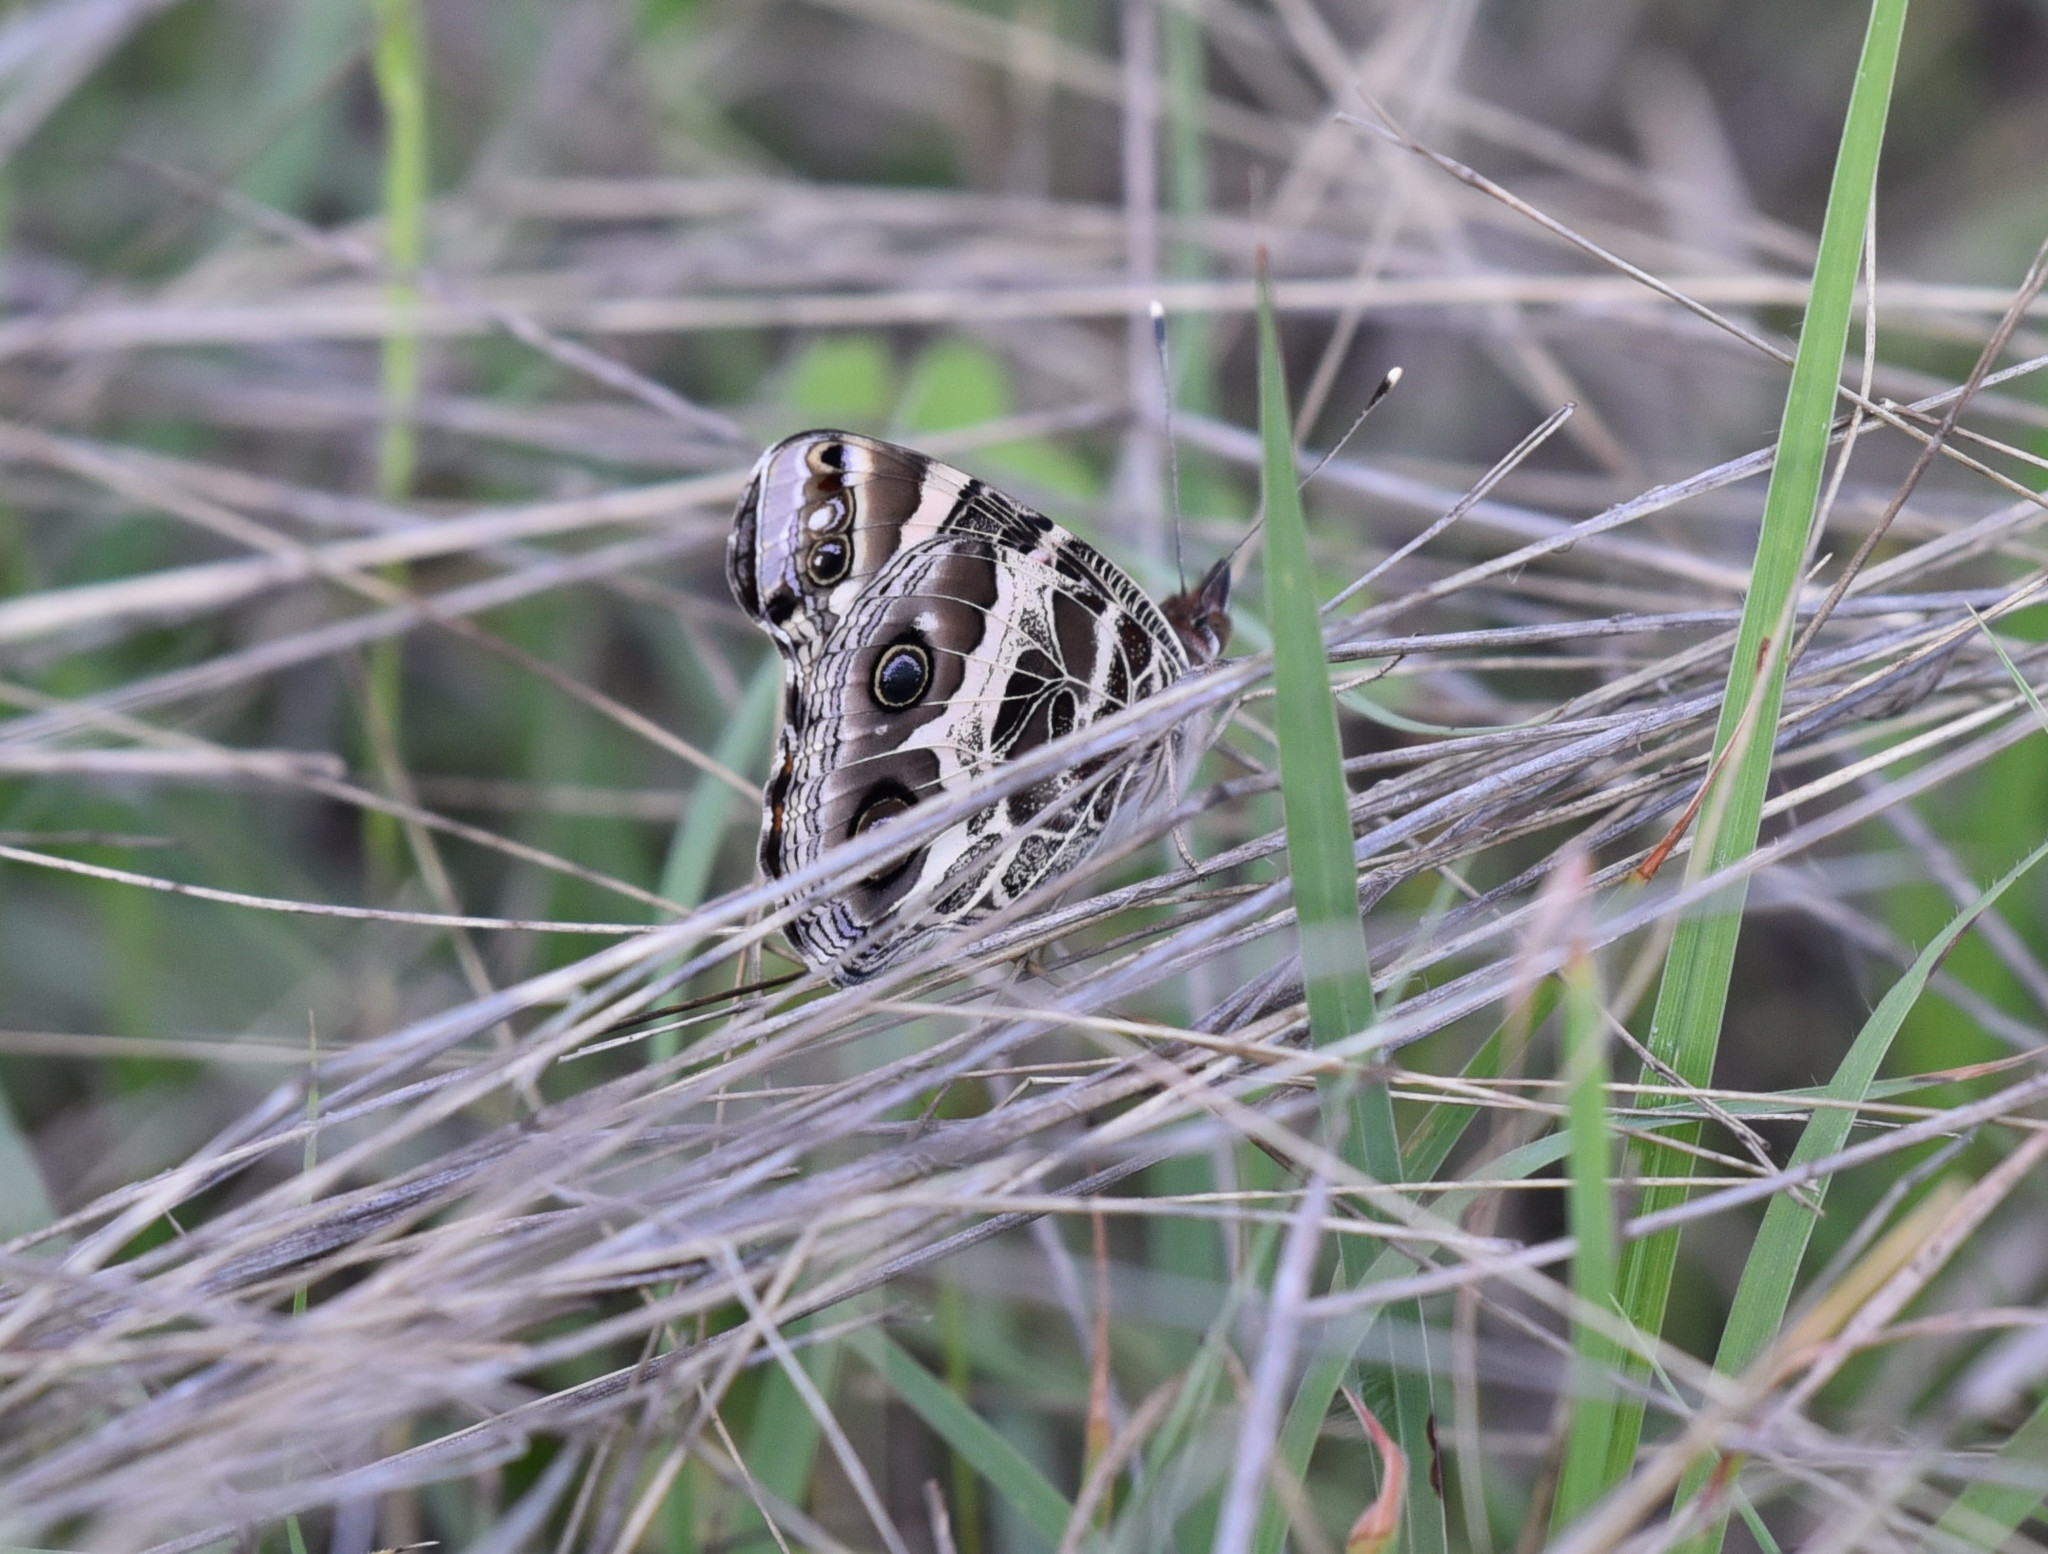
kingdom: Animalia
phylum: Arthropoda
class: Insecta
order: Lepidoptera
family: Nymphalidae
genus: Vanessa
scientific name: Vanessa virginiensis
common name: American lady
